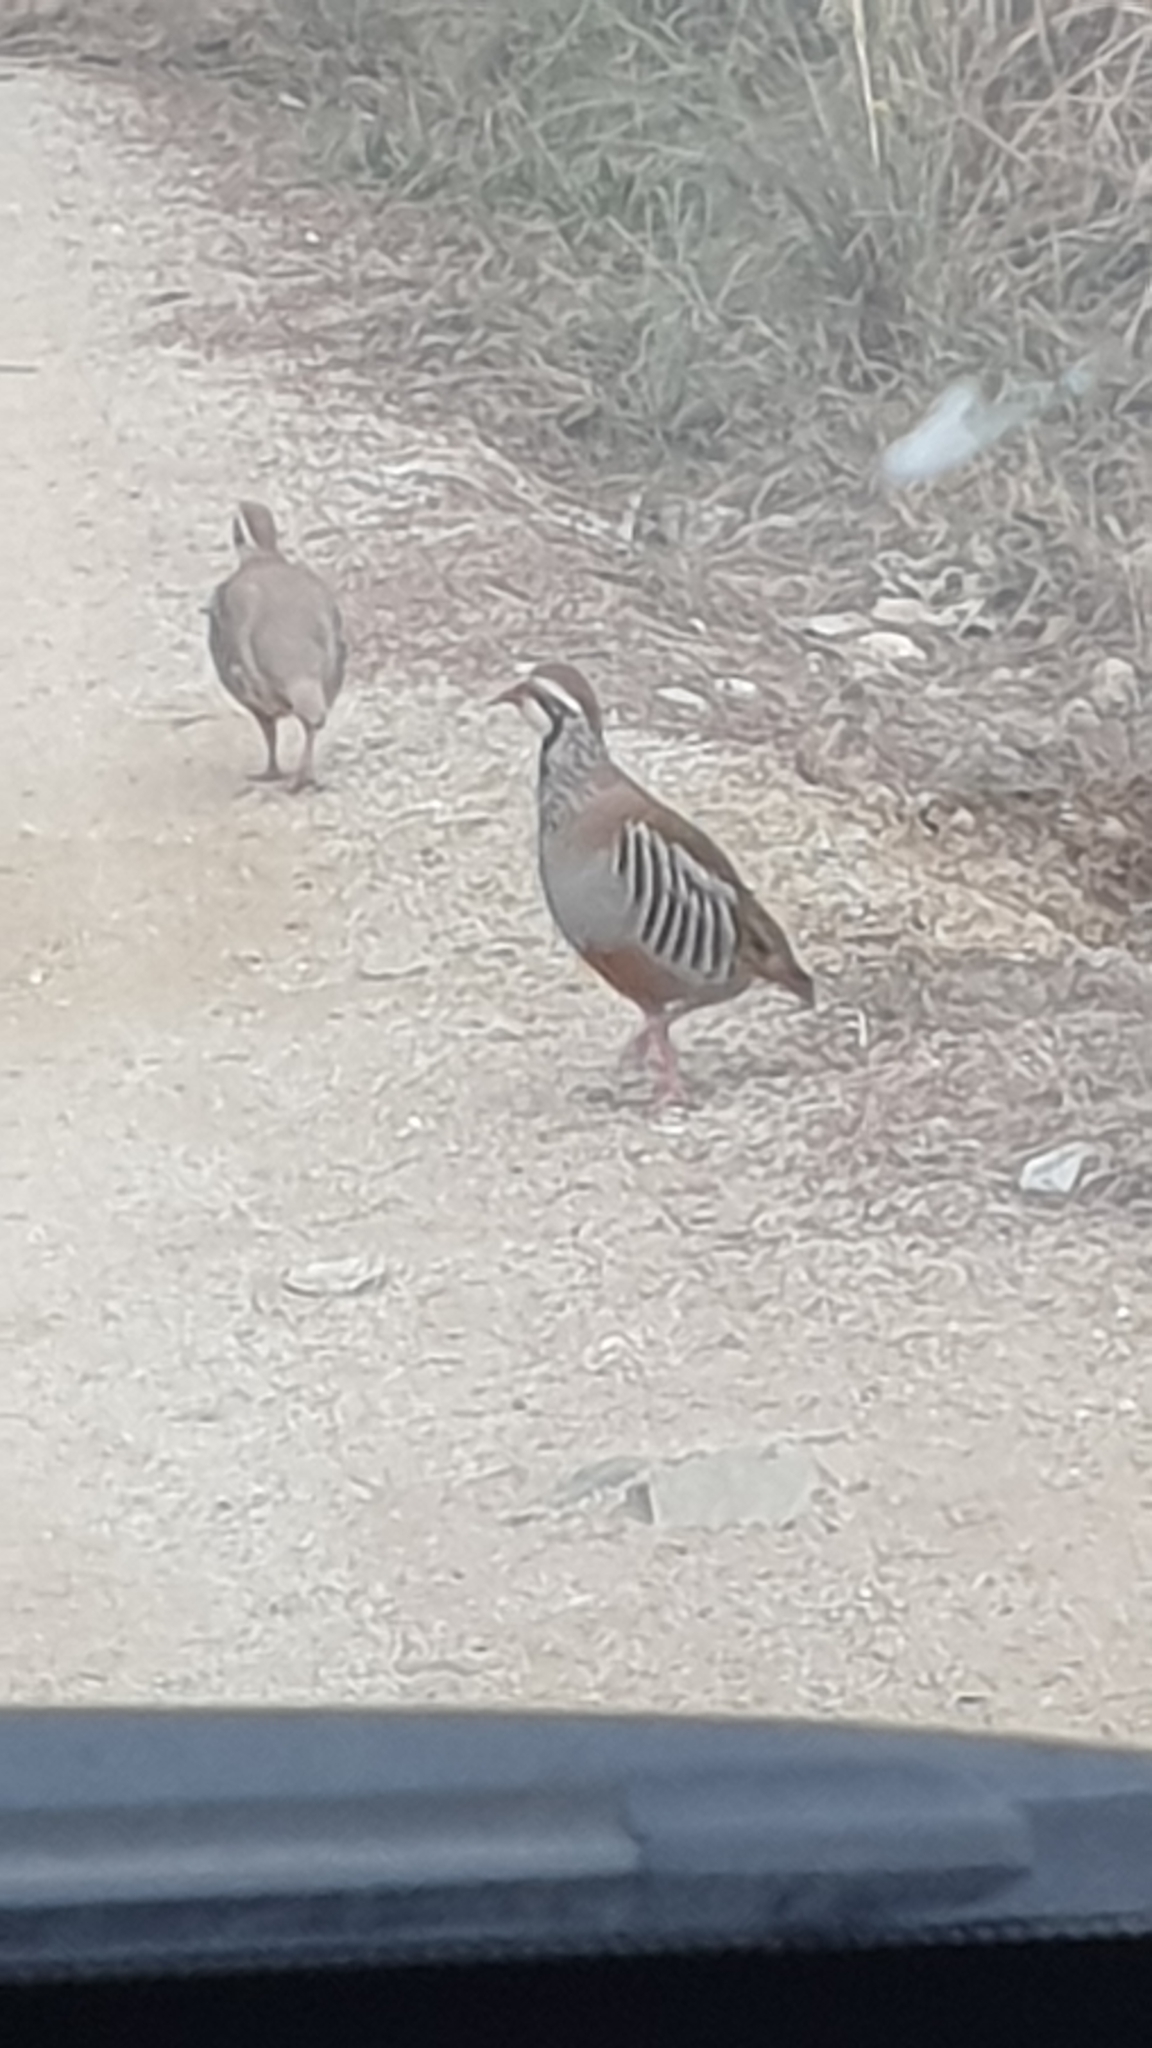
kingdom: Animalia
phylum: Chordata
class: Aves
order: Galliformes
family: Phasianidae
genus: Alectoris
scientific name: Alectoris rufa
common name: Red-legged partridge
